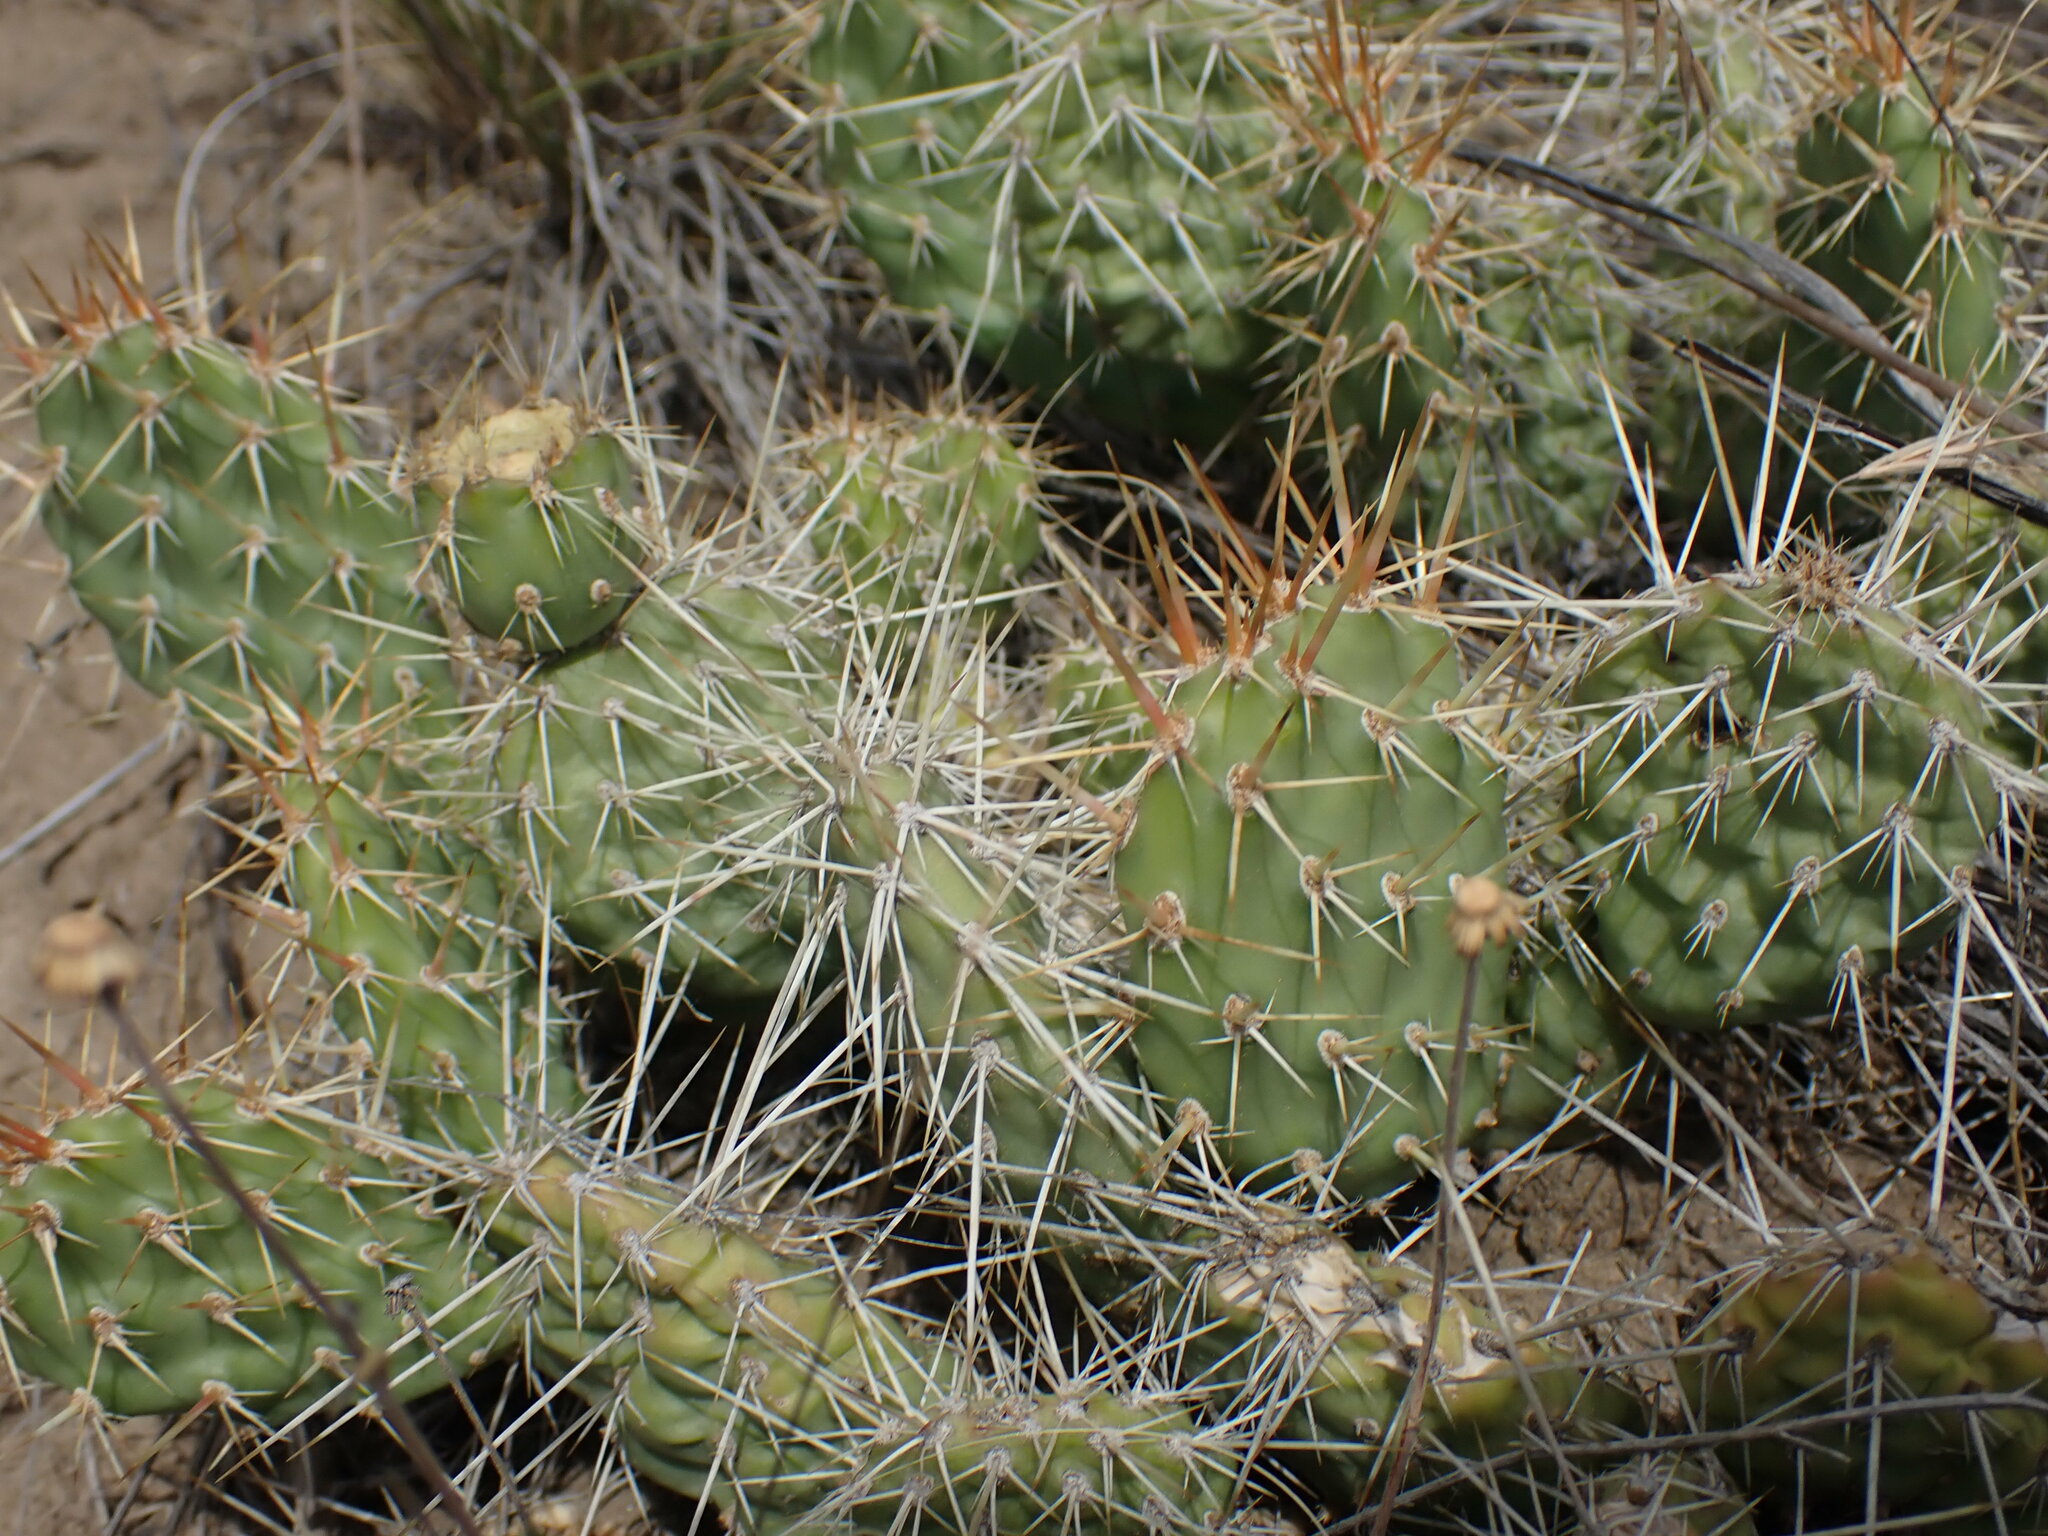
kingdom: Plantae
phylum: Tracheophyta
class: Magnoliopsida
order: Caryophyllales
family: Cactaceae
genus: Opuntia
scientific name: Opuntia columbiana
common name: Columbia prickly-pear
